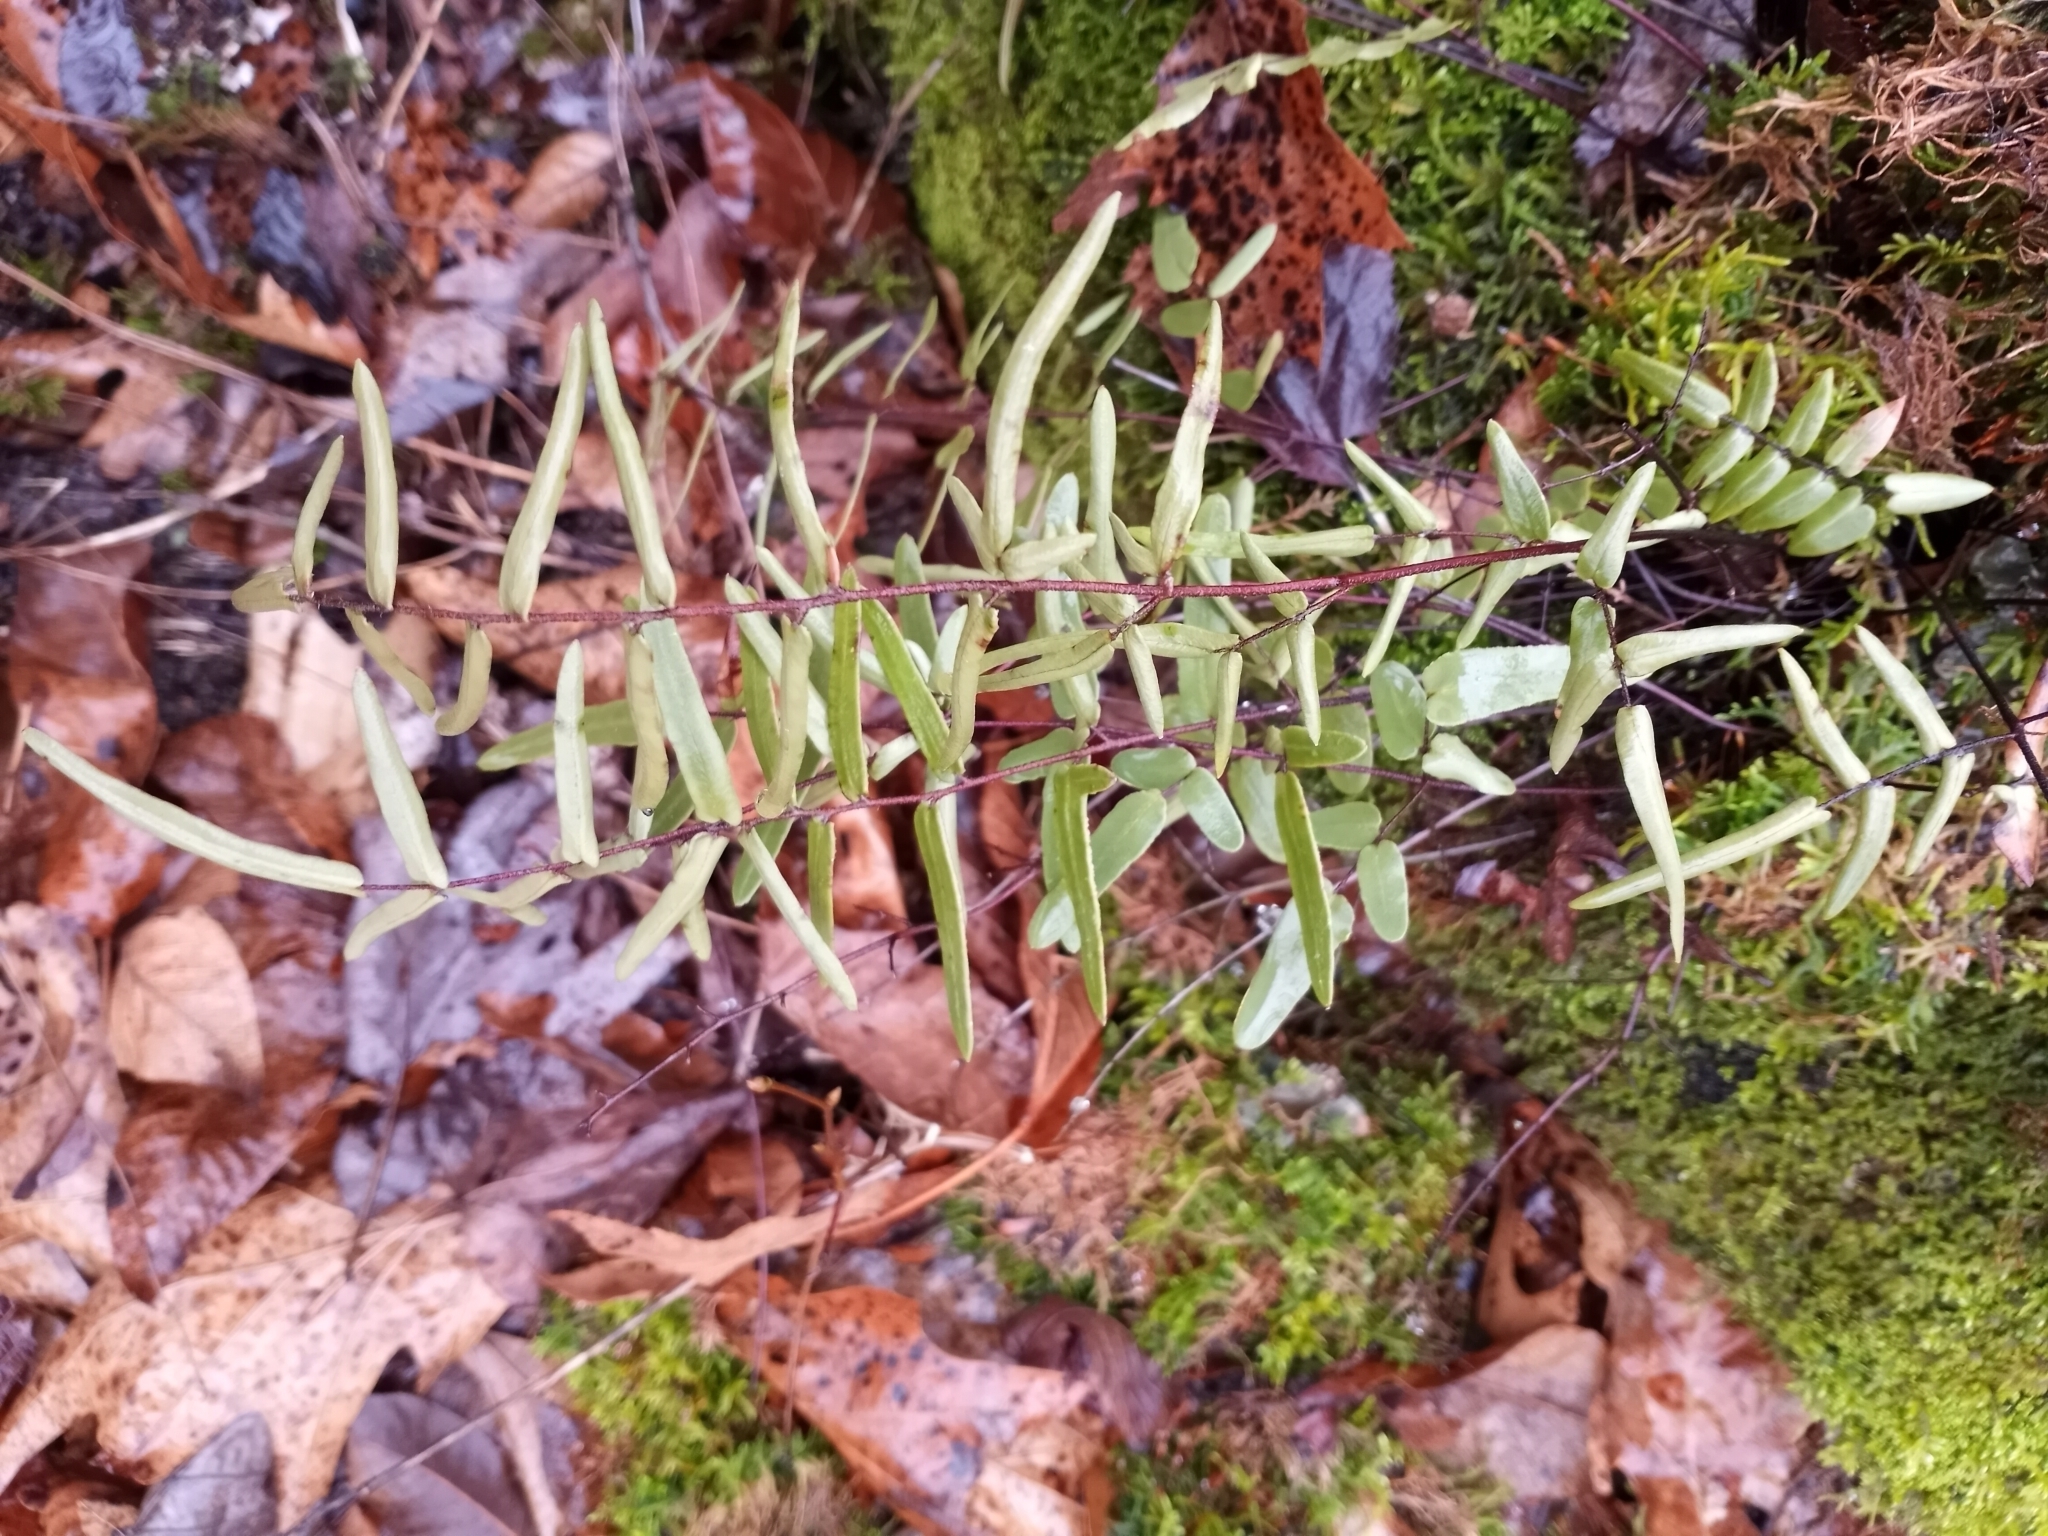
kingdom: Plantae
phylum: Tracheophyta
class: Polypodiopsida
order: Polypodiales
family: Pteridaceae
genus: Pellaea
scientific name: Pellaea atropurpurea
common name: Hairy cliffbrake
